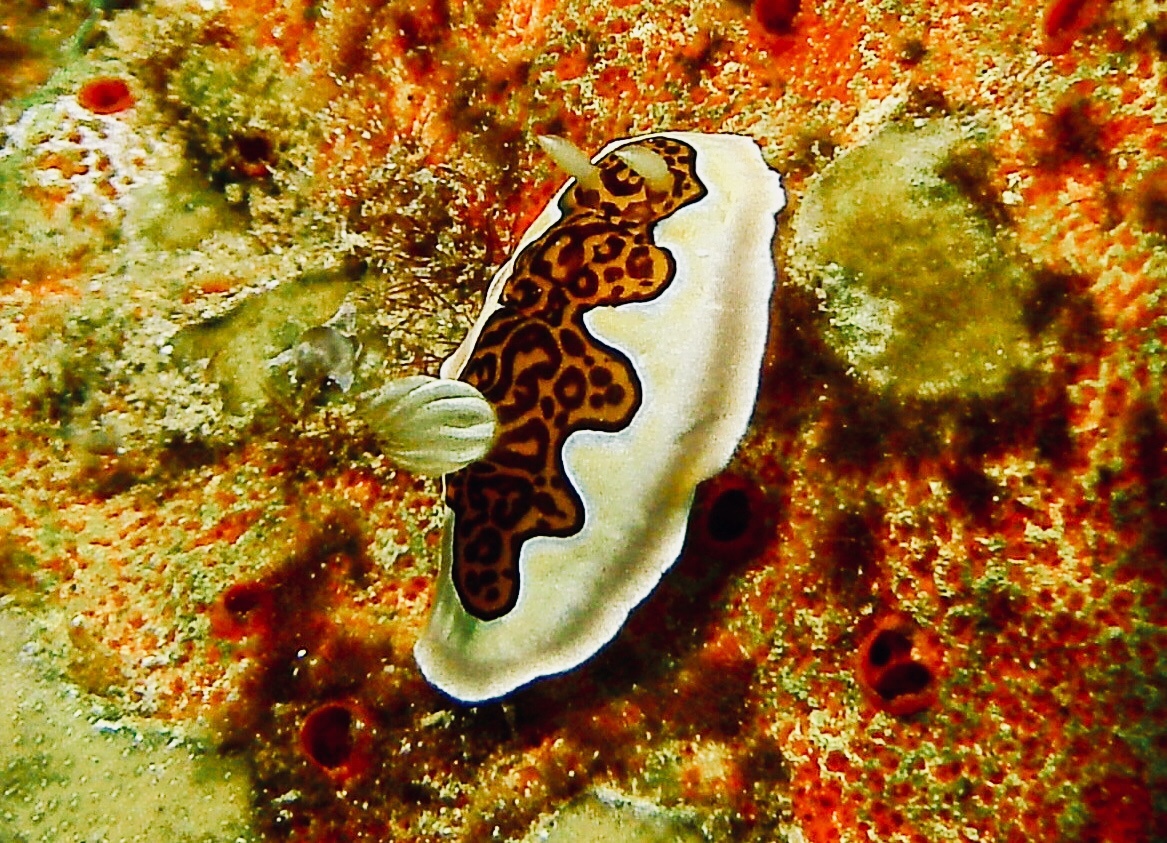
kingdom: Animalia
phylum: Mollusca
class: Gastropoda
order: Nudibranchia
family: Chromodorididae
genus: Goniobranchus
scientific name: Goniobranchus gleniei
